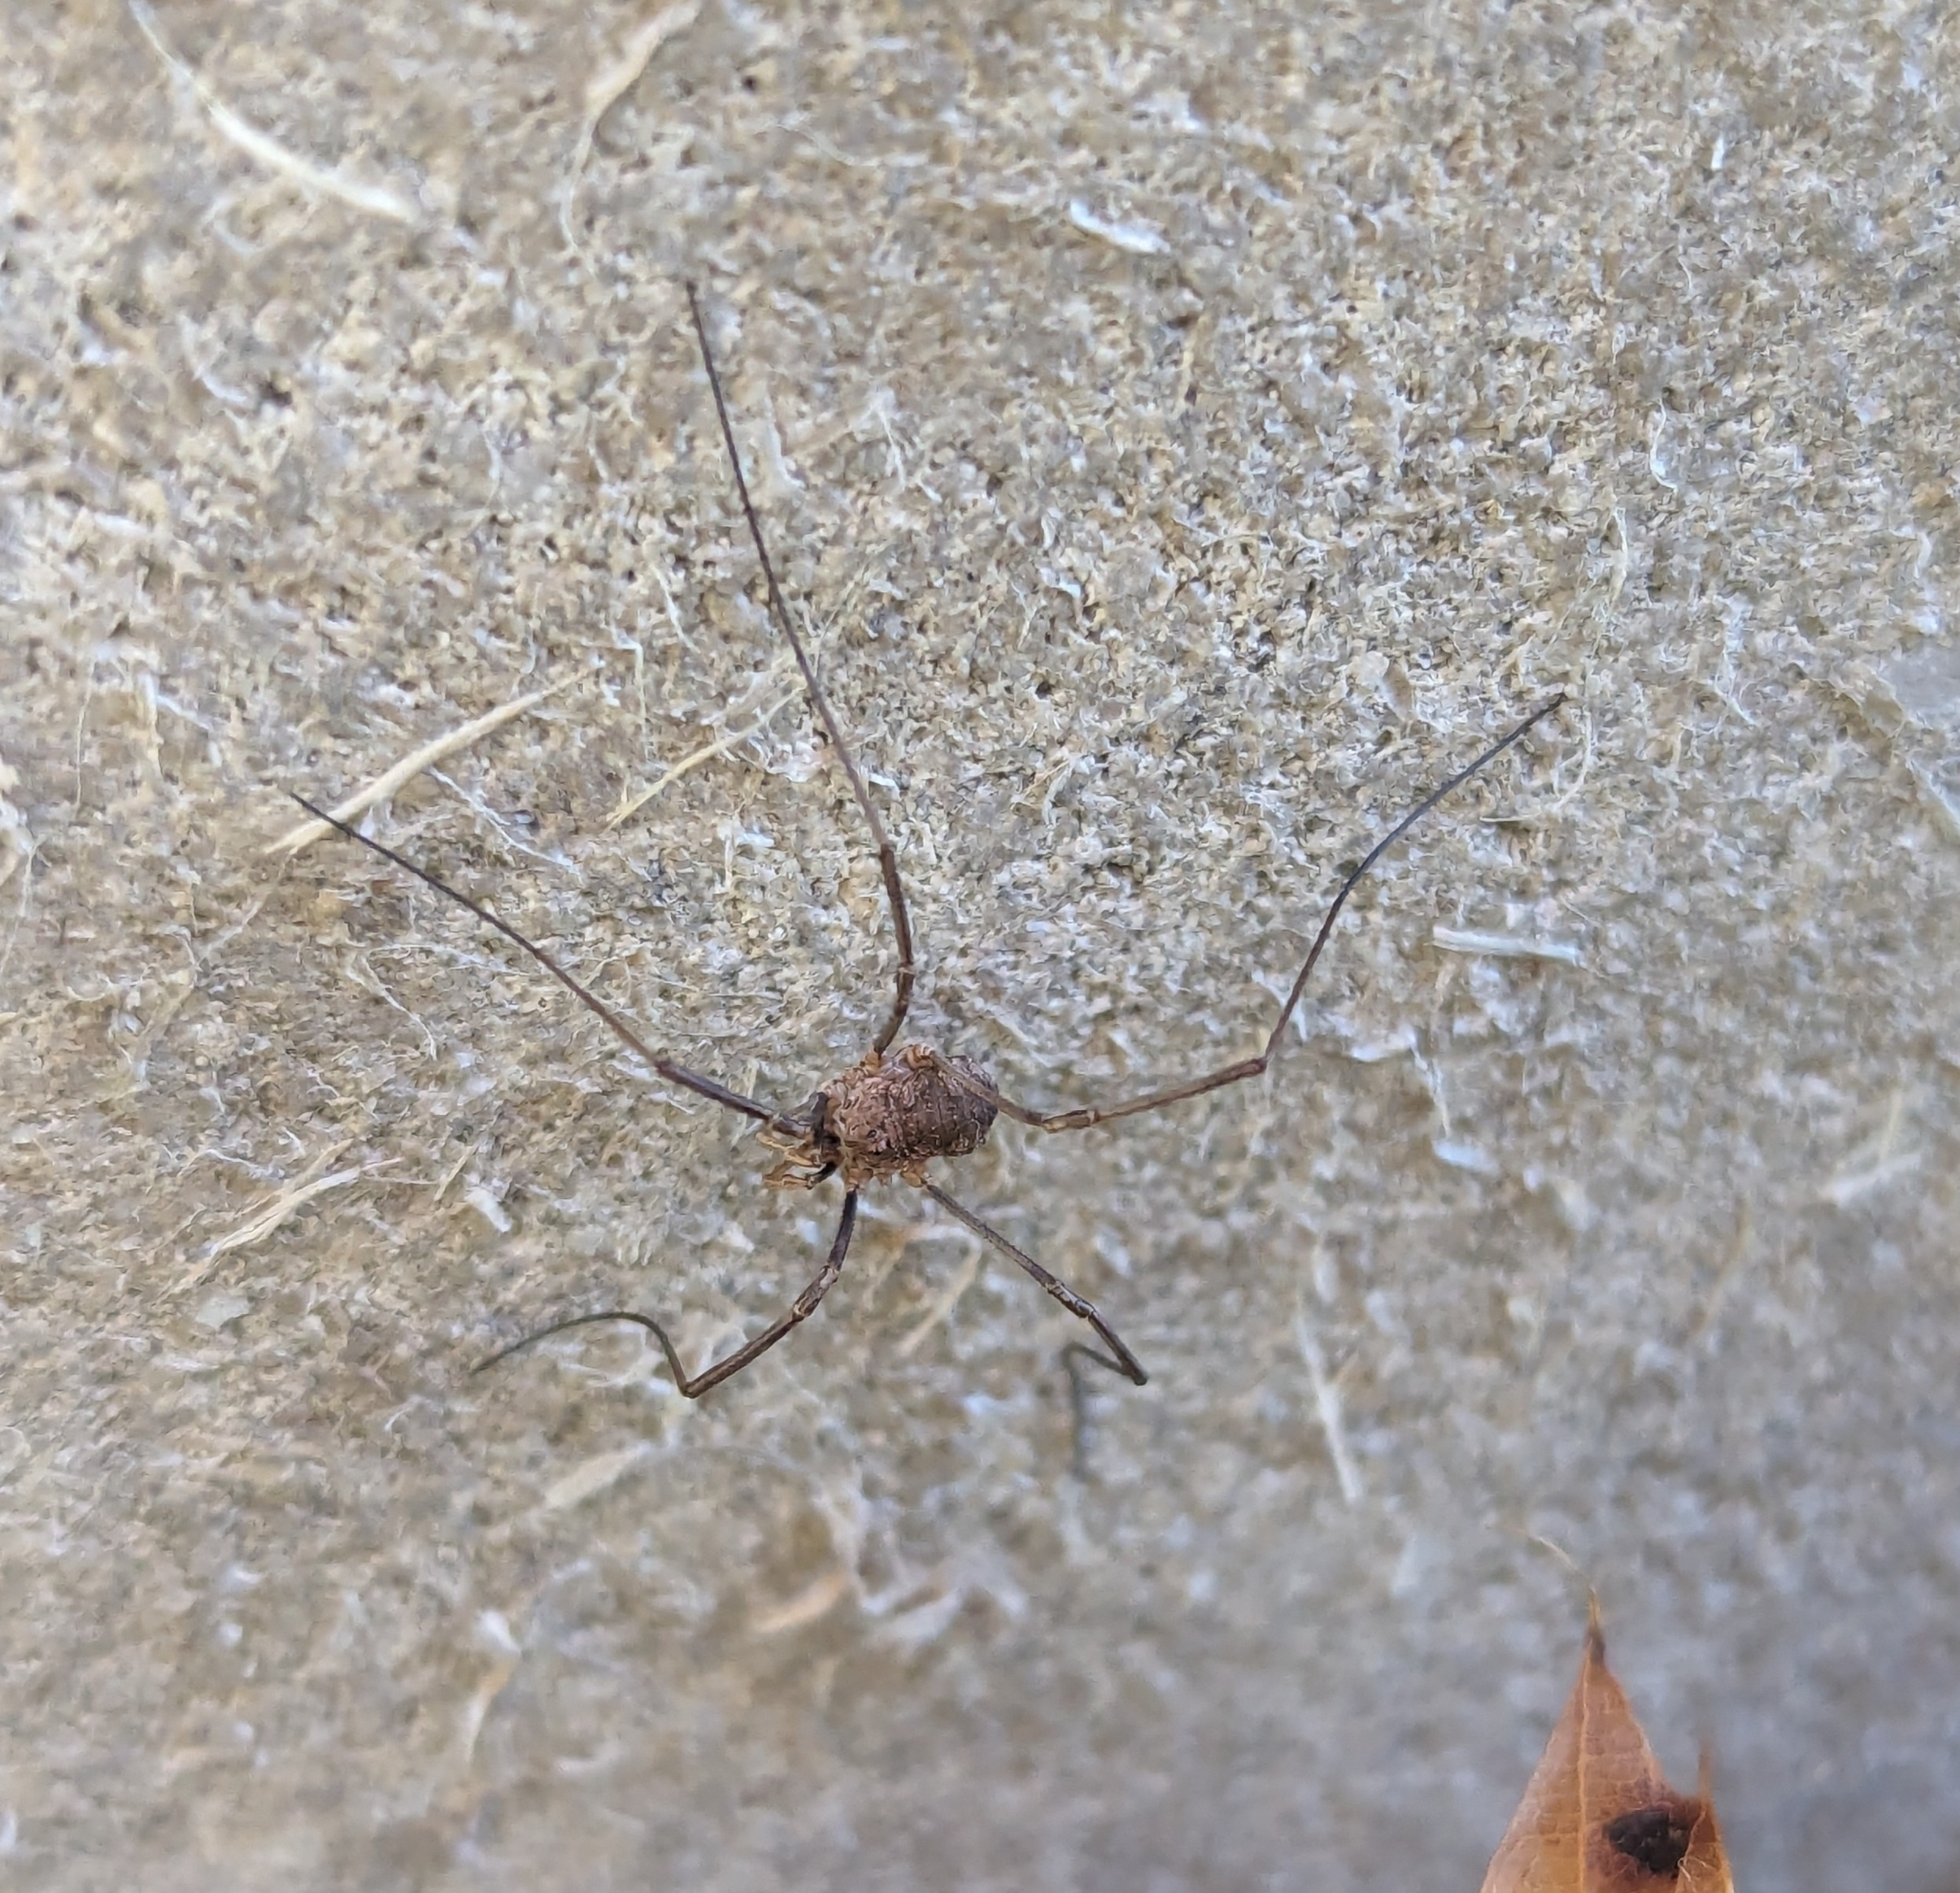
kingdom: Animalia
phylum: Arthropoda
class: Arachnida
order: Opiliones
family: Phalangiidae
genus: Phalangium
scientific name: Phalangium opilio
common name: Daddy longleg
